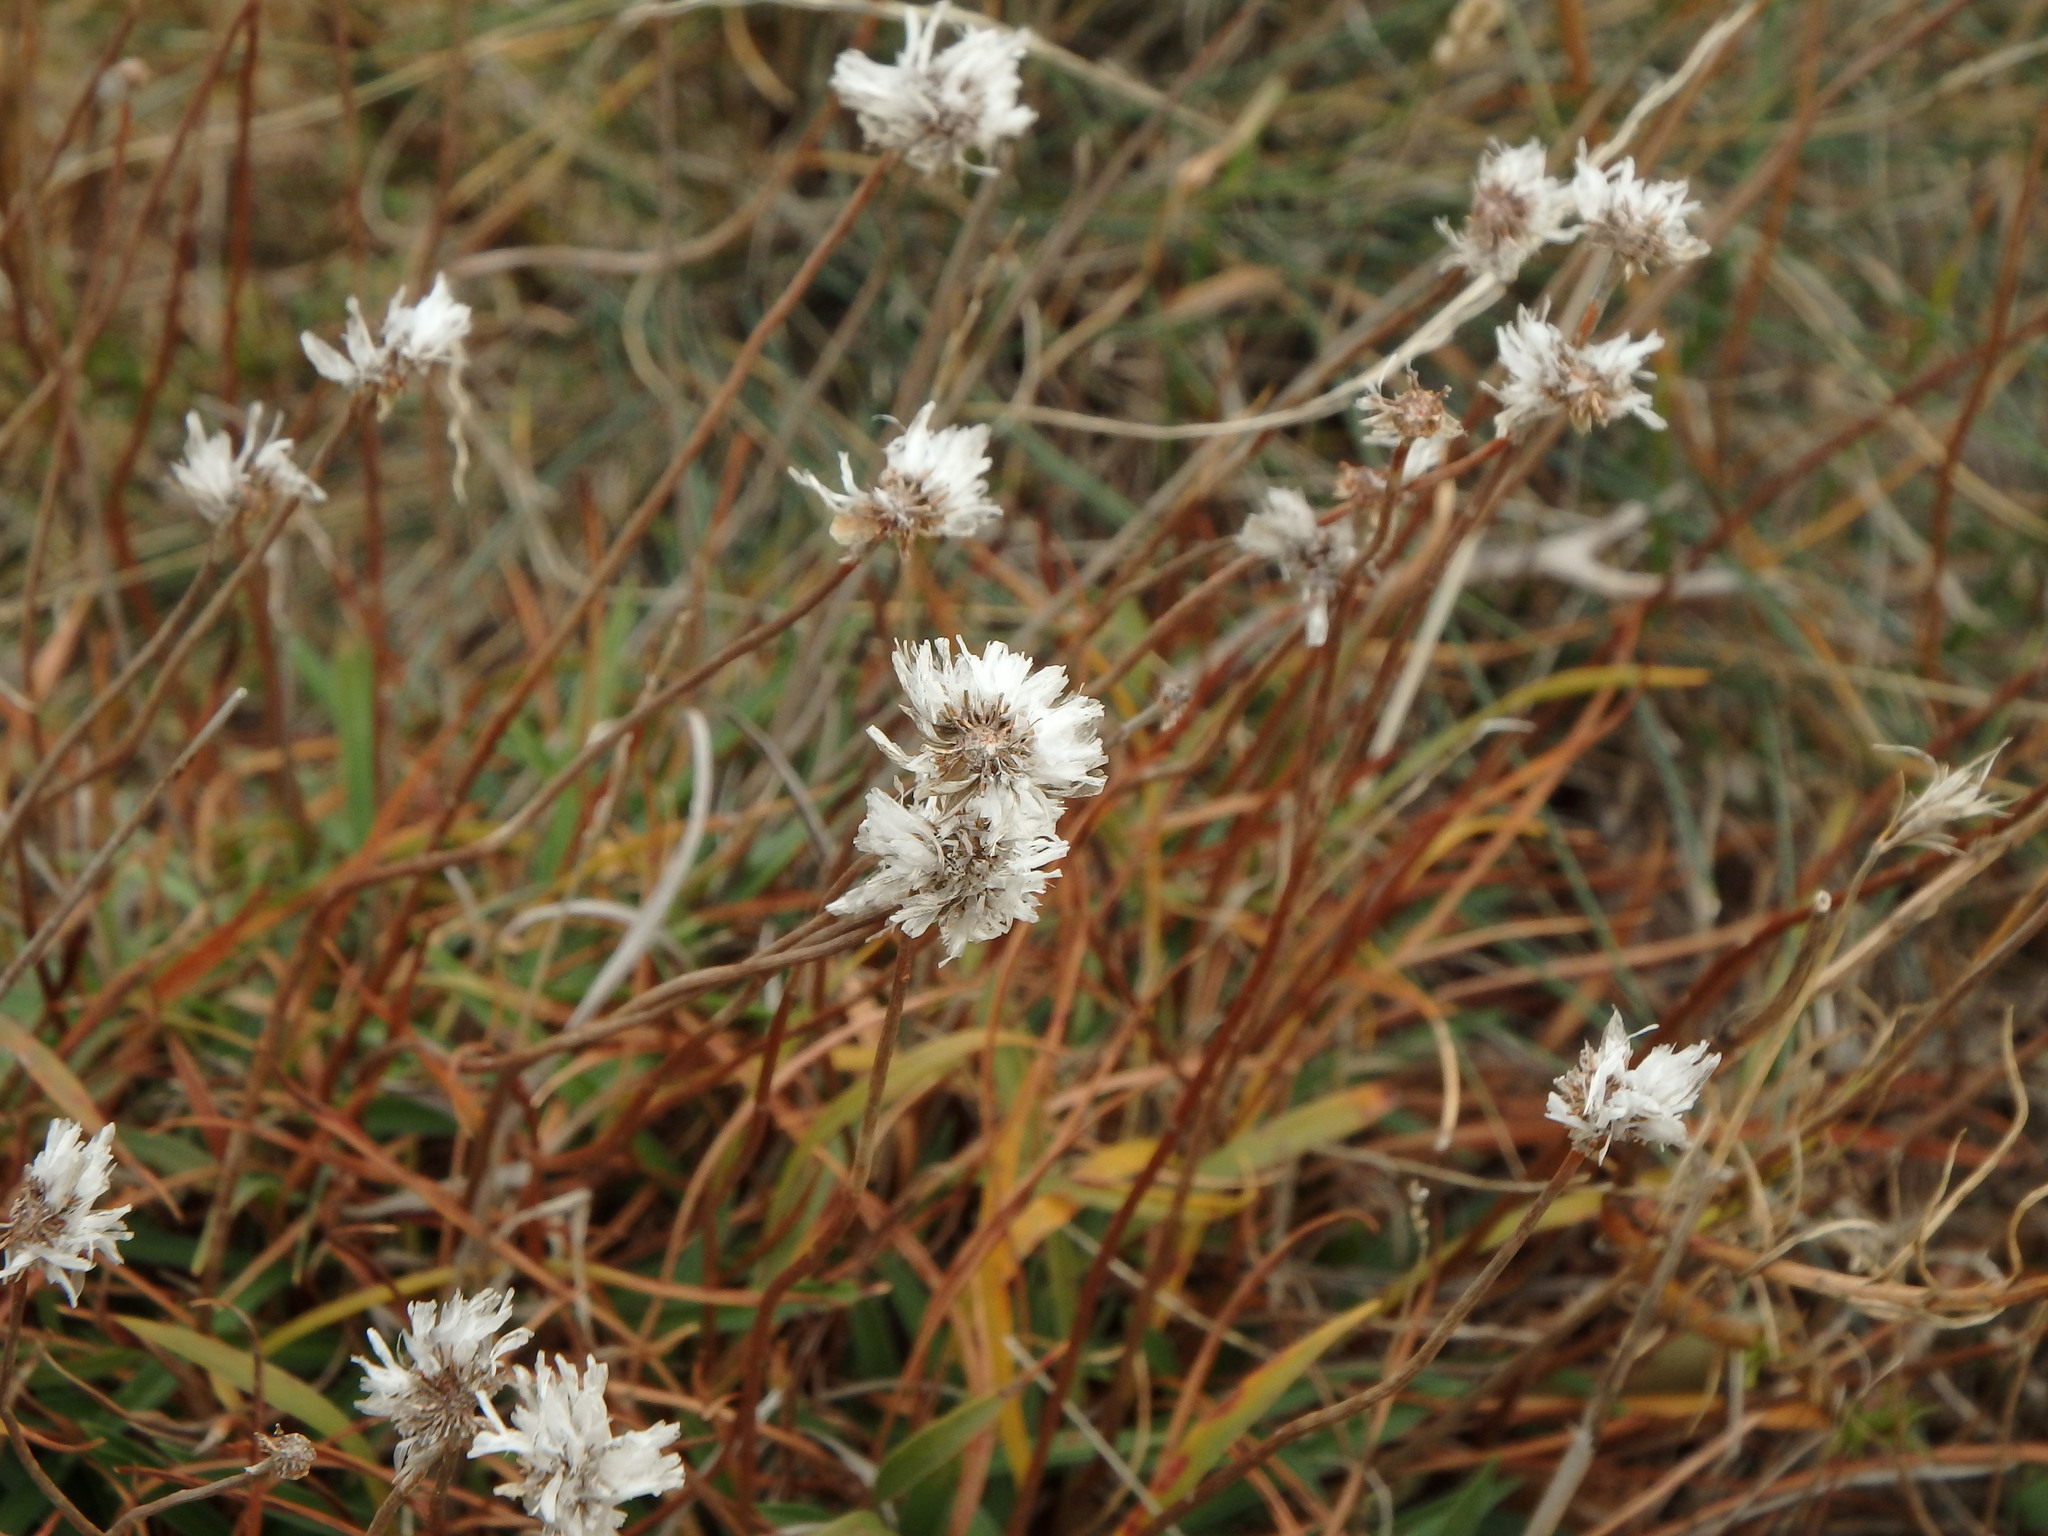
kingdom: Plantae
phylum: Tracheophyta
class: Magnoliopsida
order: Caryophyllales
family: Plumbaginaceae
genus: Armeria
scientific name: Armeria ruscinonensis
